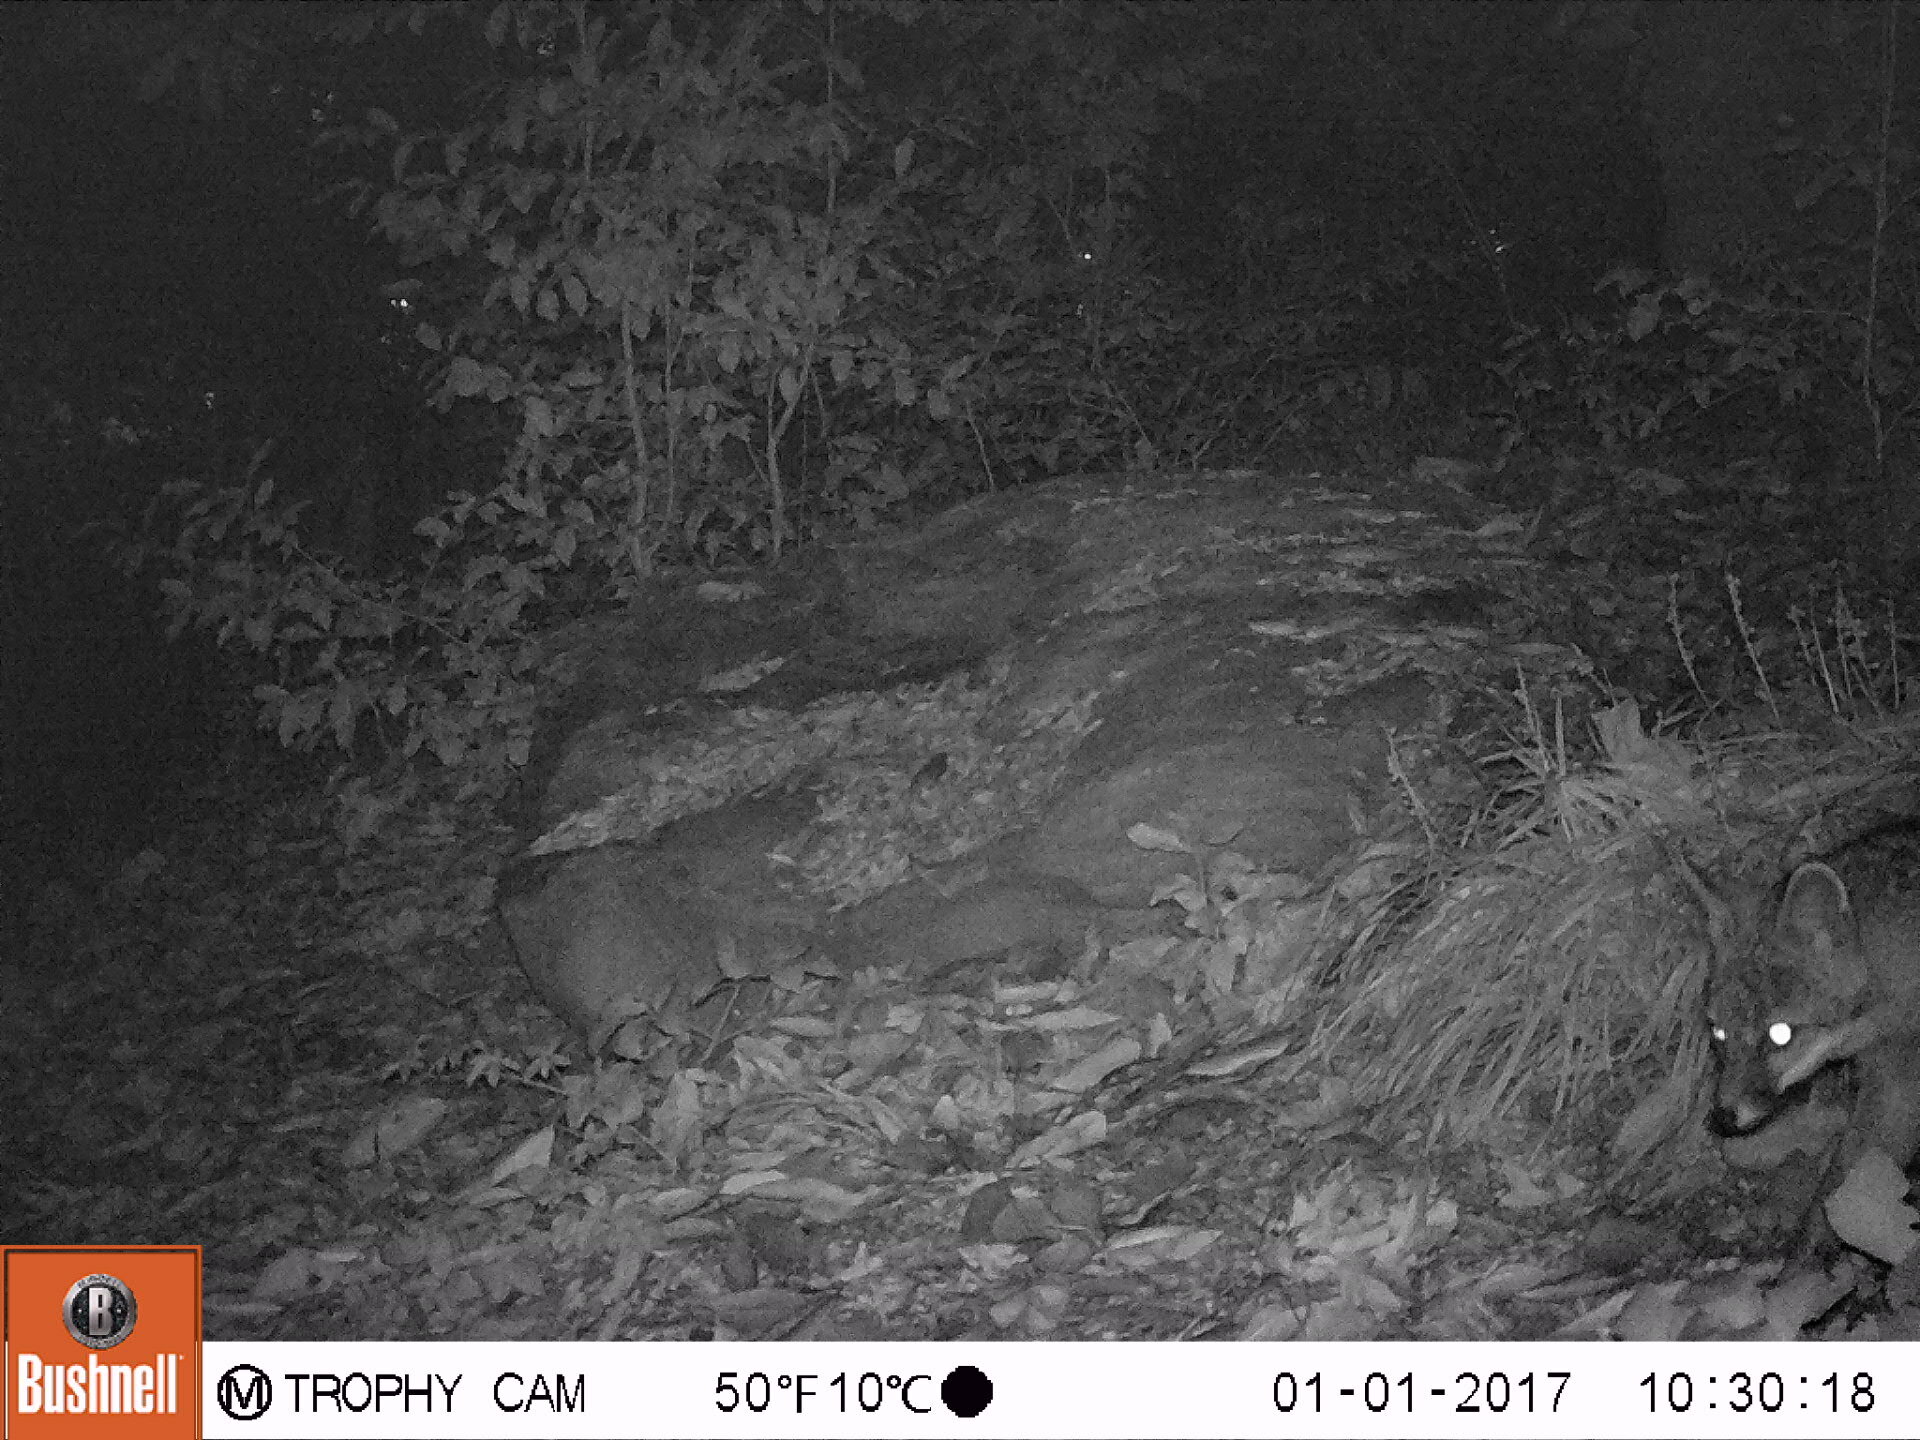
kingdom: Animalia
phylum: Chordata
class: Mammalia
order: Carnivora
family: Canidae
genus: Urocyon
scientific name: Urocyon cinereoargenteus
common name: Gray fox
